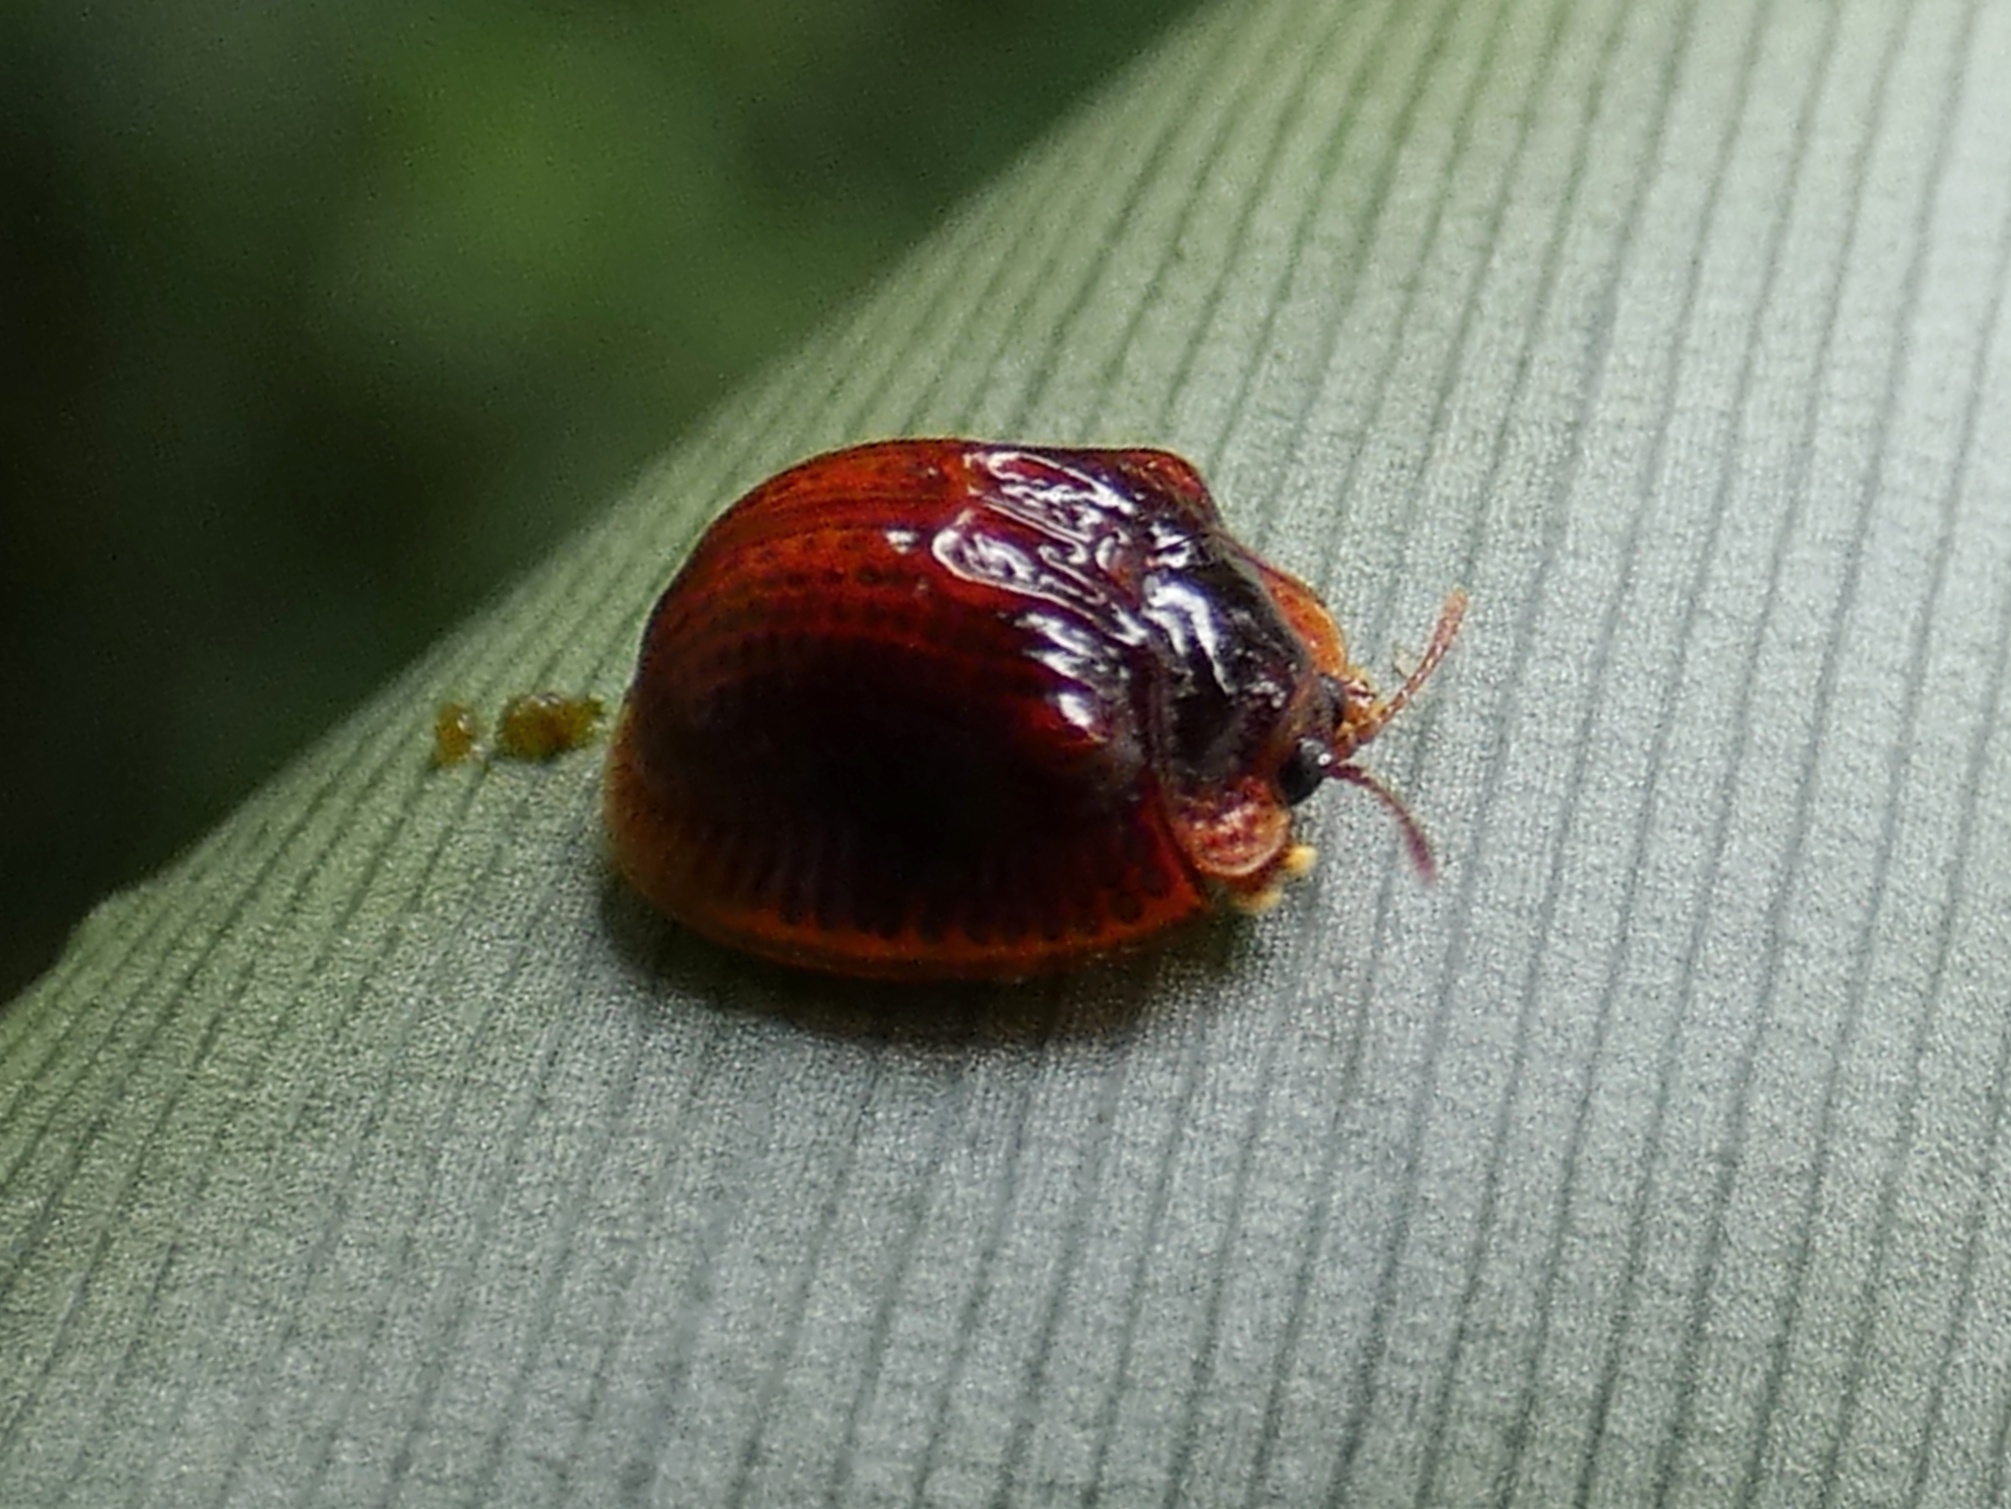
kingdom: Animalia
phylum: Arthropoda
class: Insecta
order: Coleoptera
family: Chrysomelidae
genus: Spaethiella
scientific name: Spaethiella miniata
